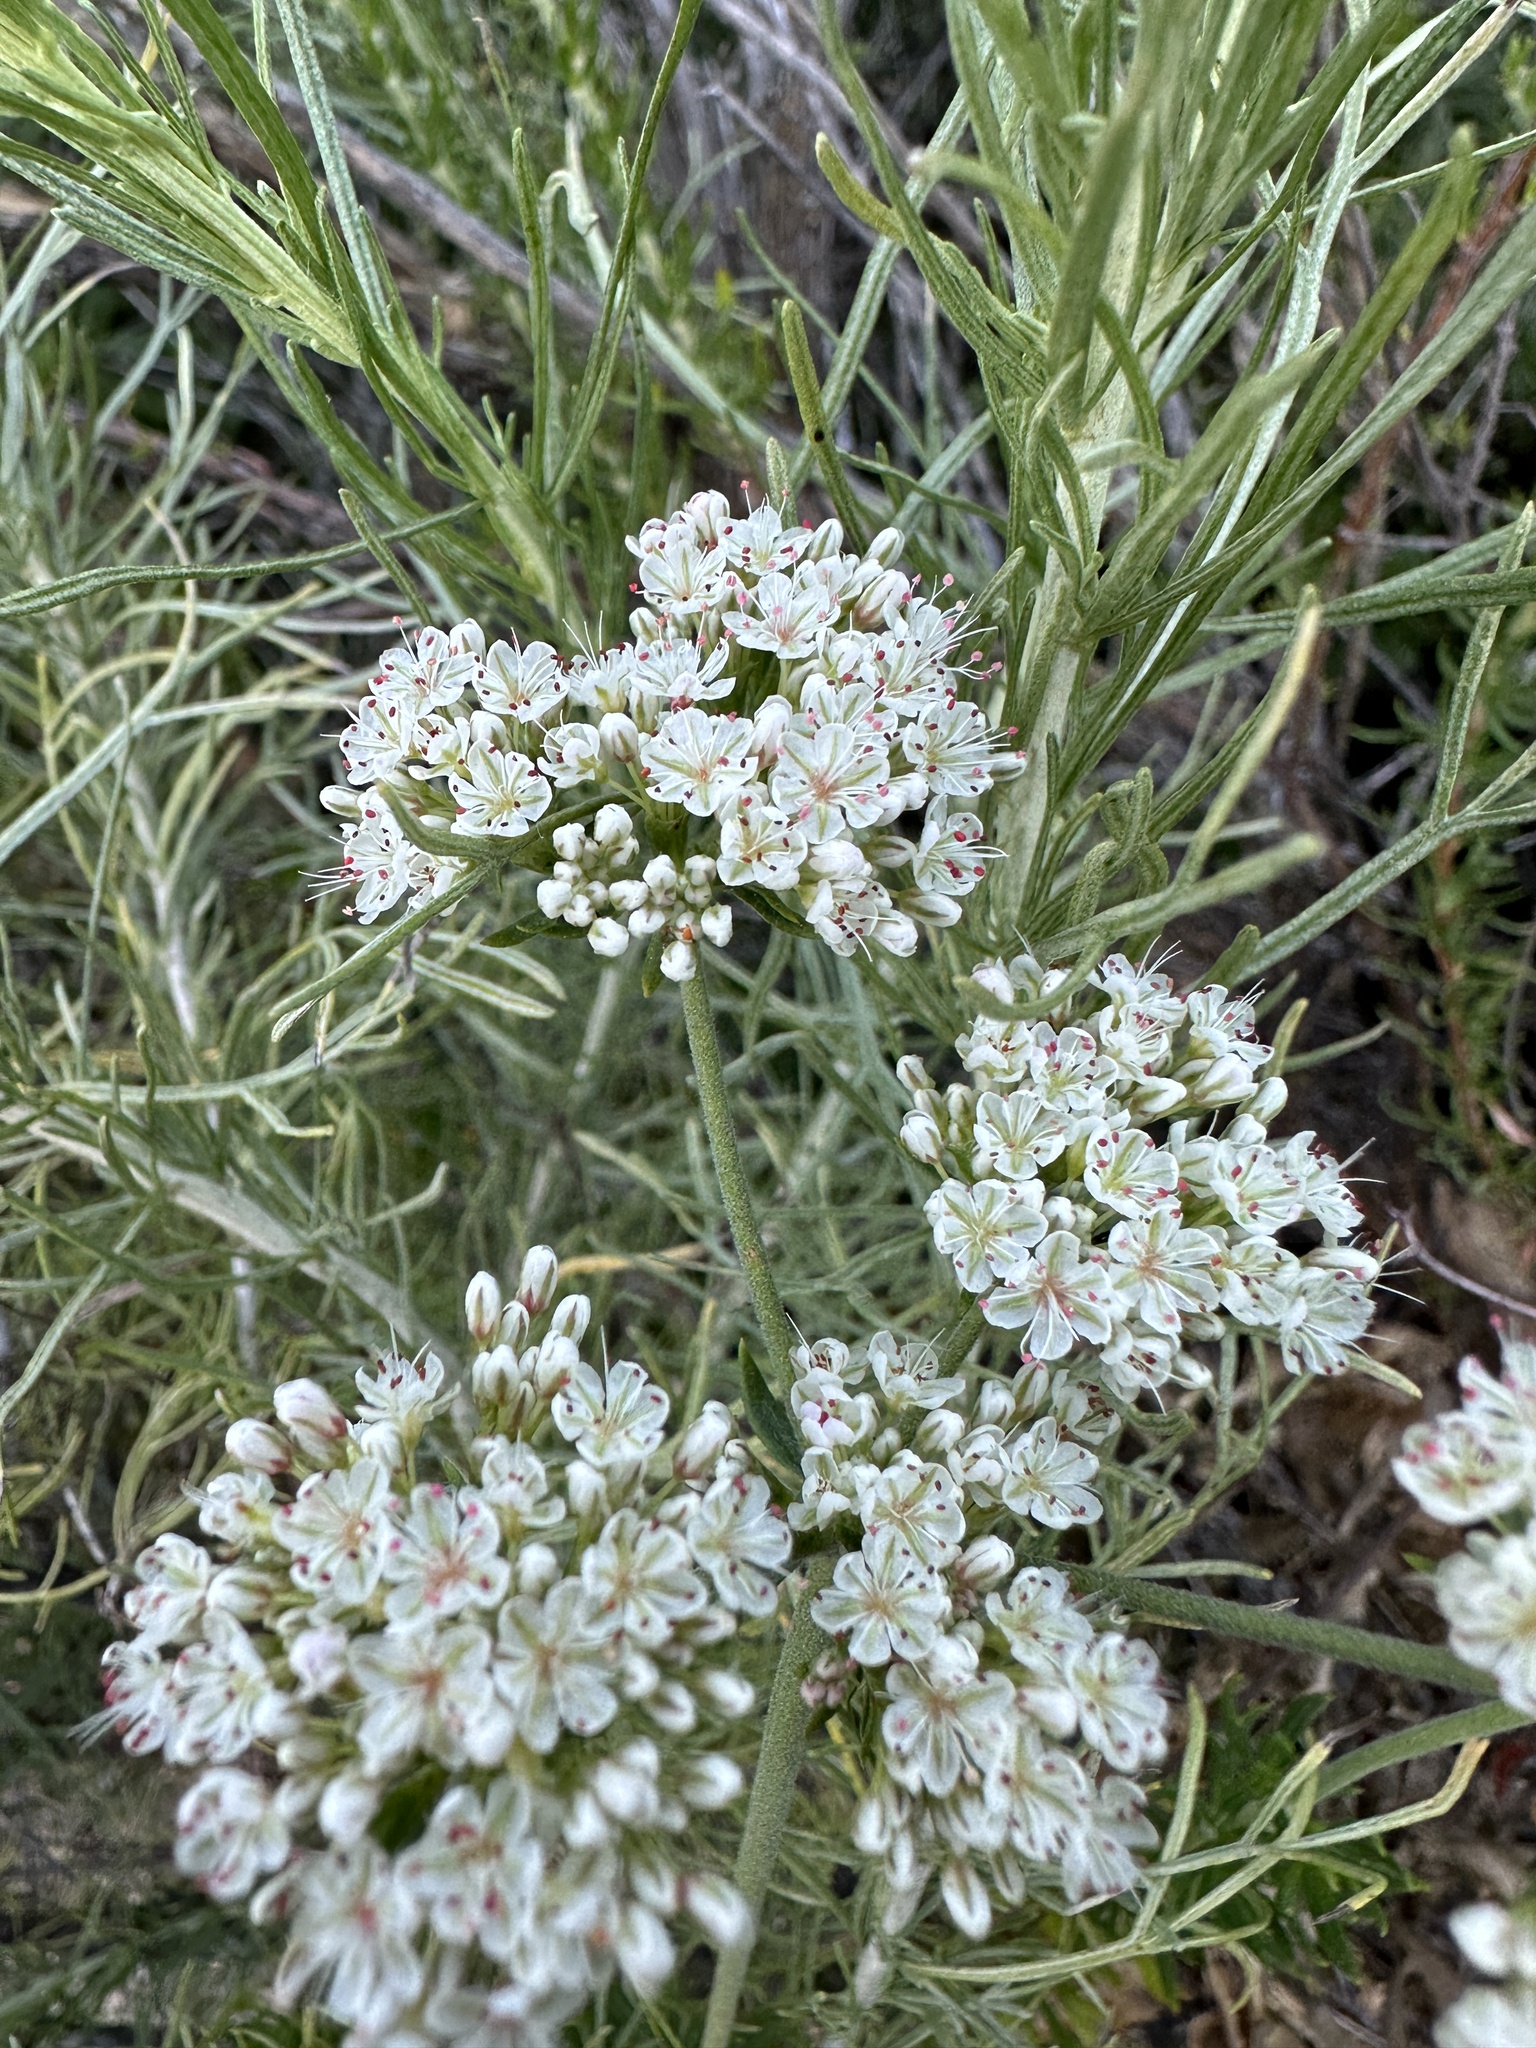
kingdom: Plantae
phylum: Tracheophyta
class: Magnoliopsida
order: Caryophyllales
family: Polygonaceae
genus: Eriogonum
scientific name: Eriogonum fasciculatum
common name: California wild buckwheat
